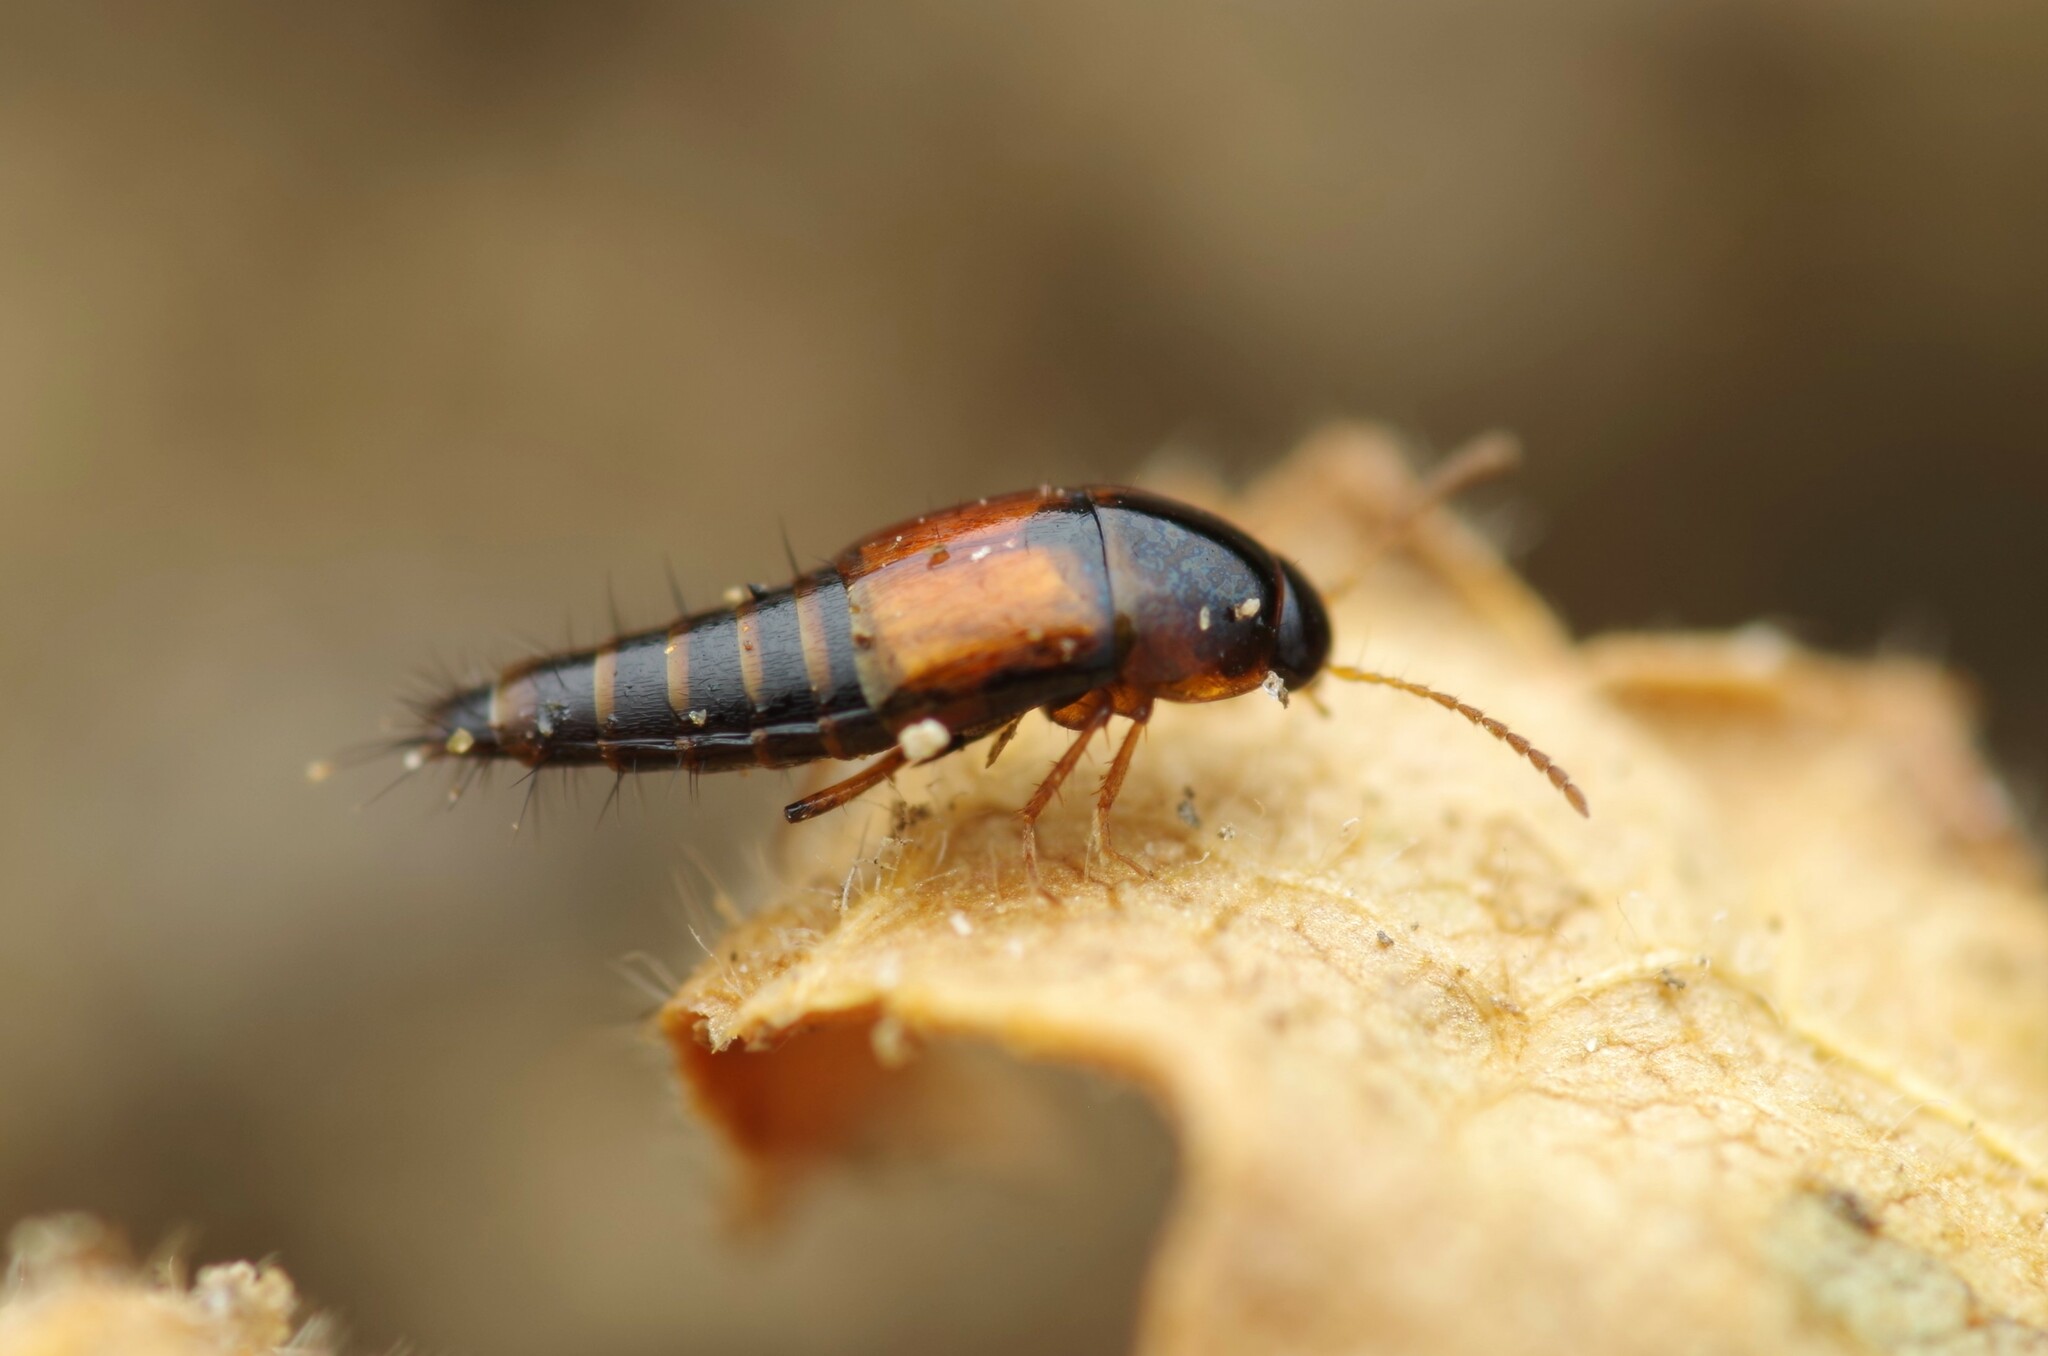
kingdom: Animalia
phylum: Arthropoda
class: Insecta
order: Coleoptera
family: Staphylinidae
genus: Tachyporus
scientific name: Tachyporus hypnorum
